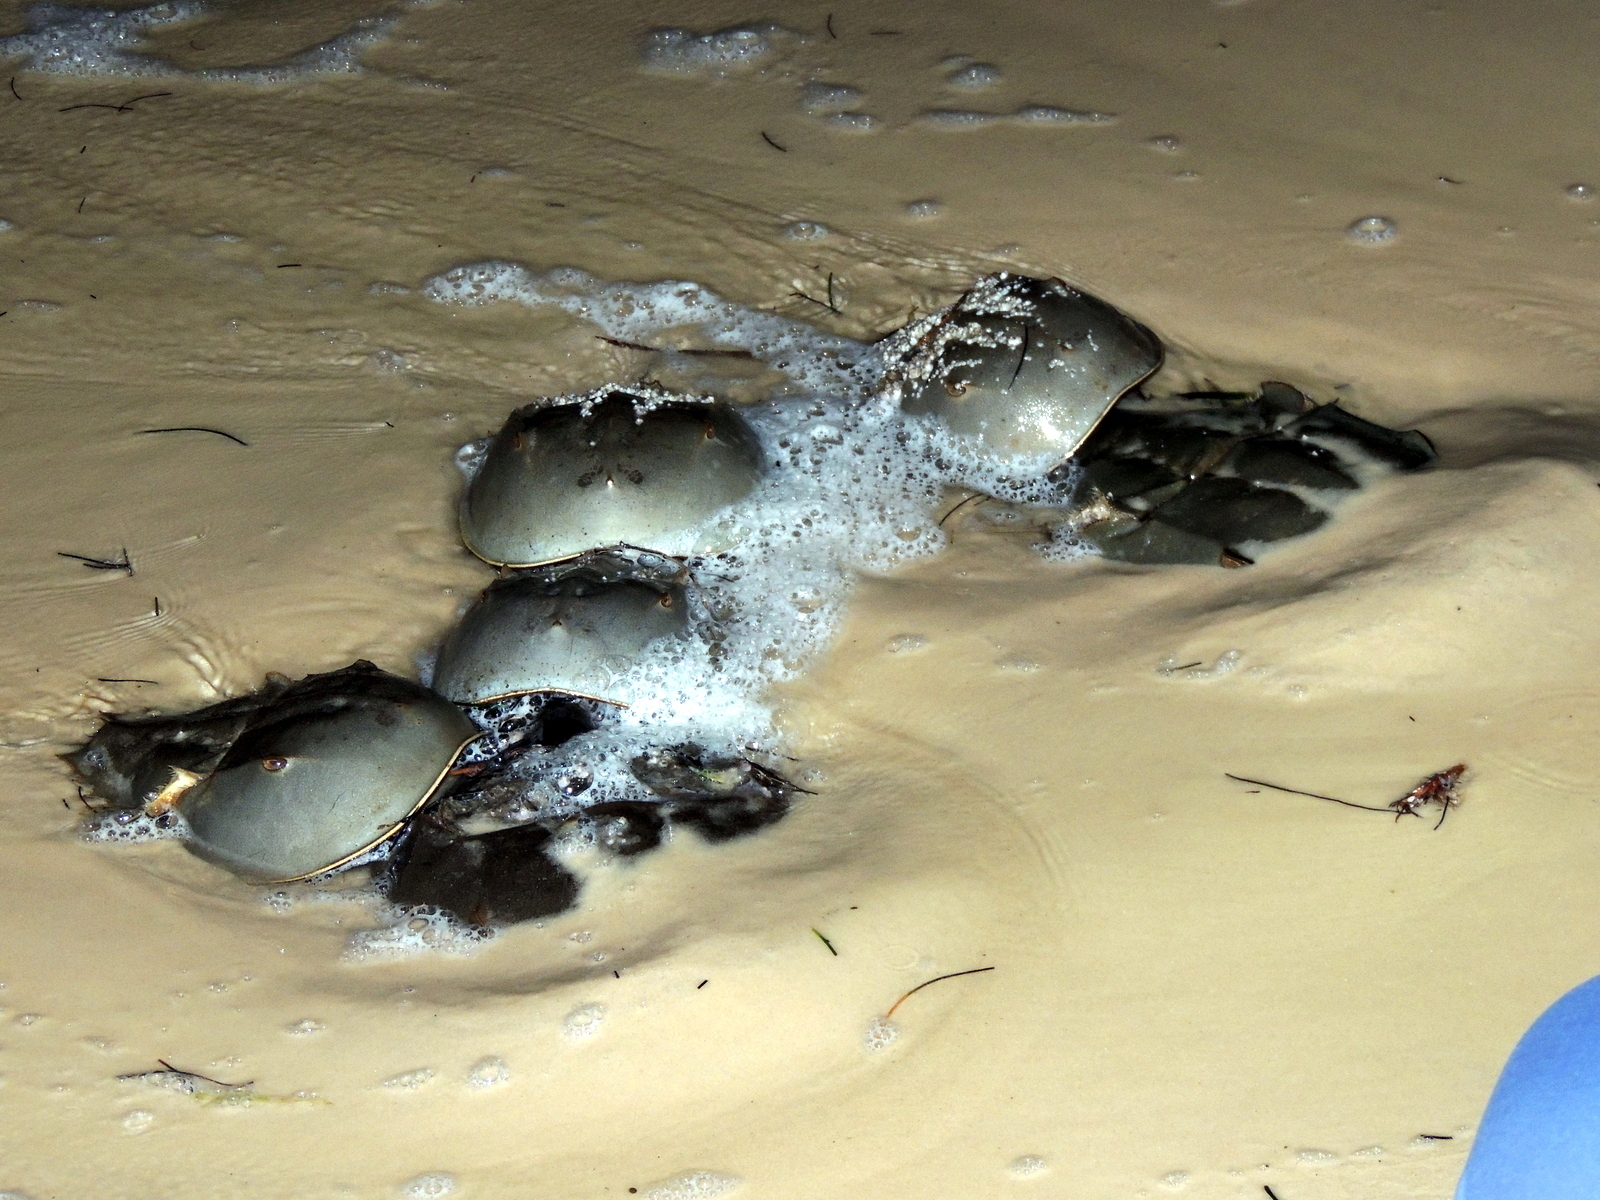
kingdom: Animalia
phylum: Arthropoda
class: Merostomata
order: Xiphosurida
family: Limulidae
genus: Limulus
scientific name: Limulus polyphemus
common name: Horseshoe crab
